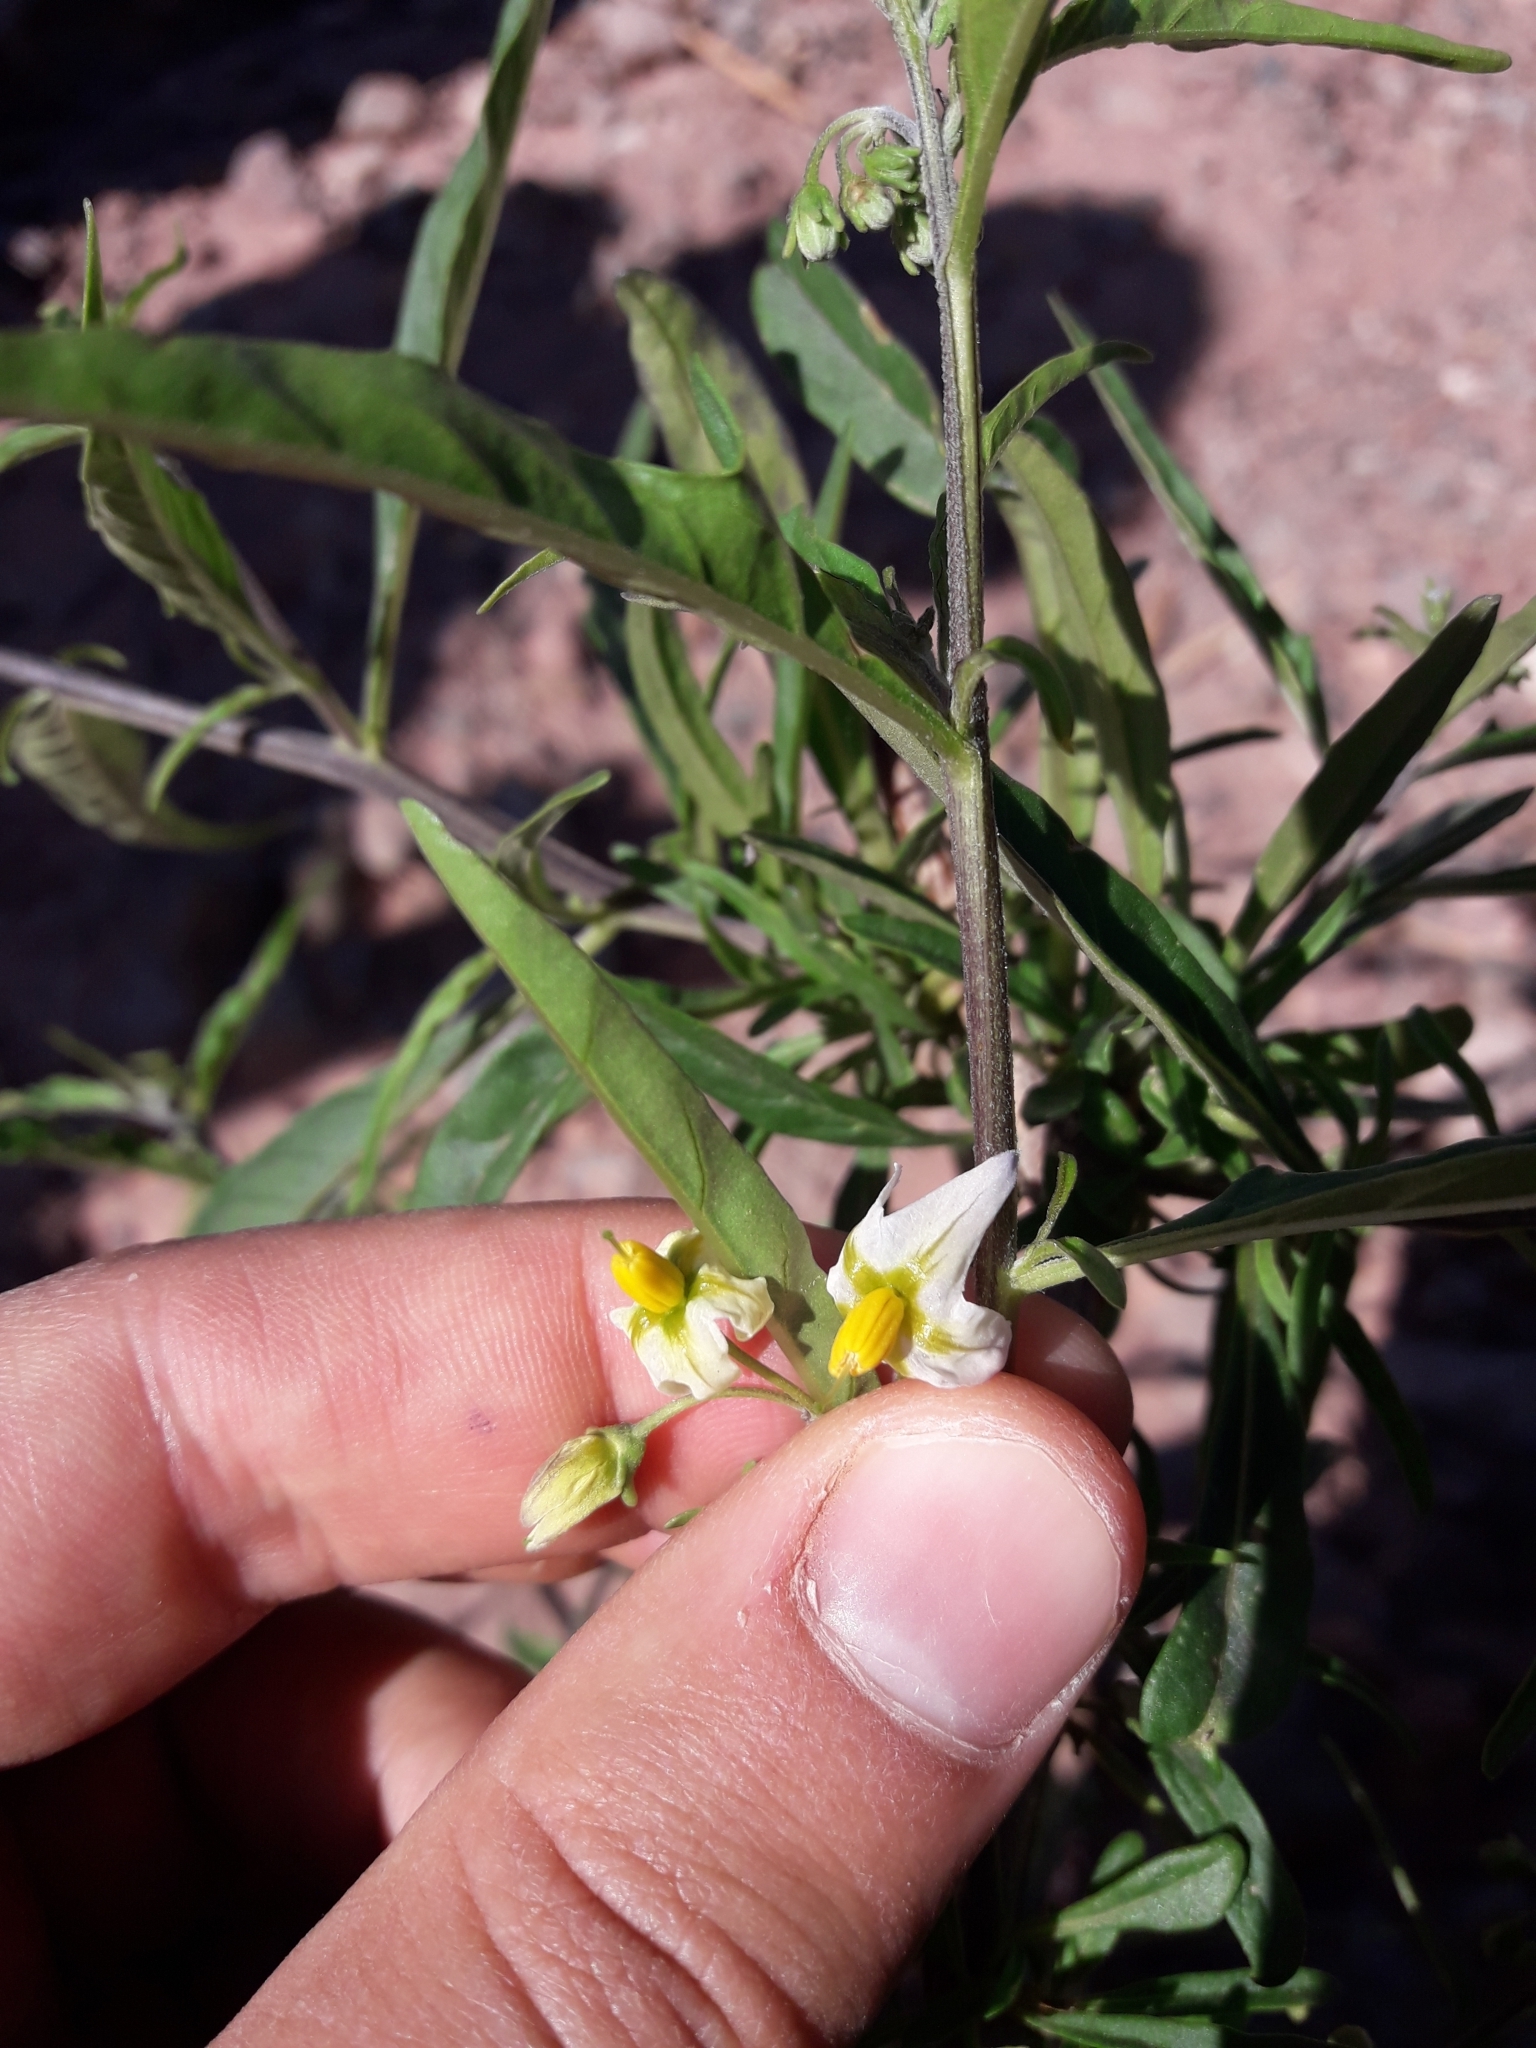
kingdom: Plantae
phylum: Tracheophyta
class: Magnoliopsida
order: Solanales
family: Solanaceae
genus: Solanum
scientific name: Solanum salicifolium
